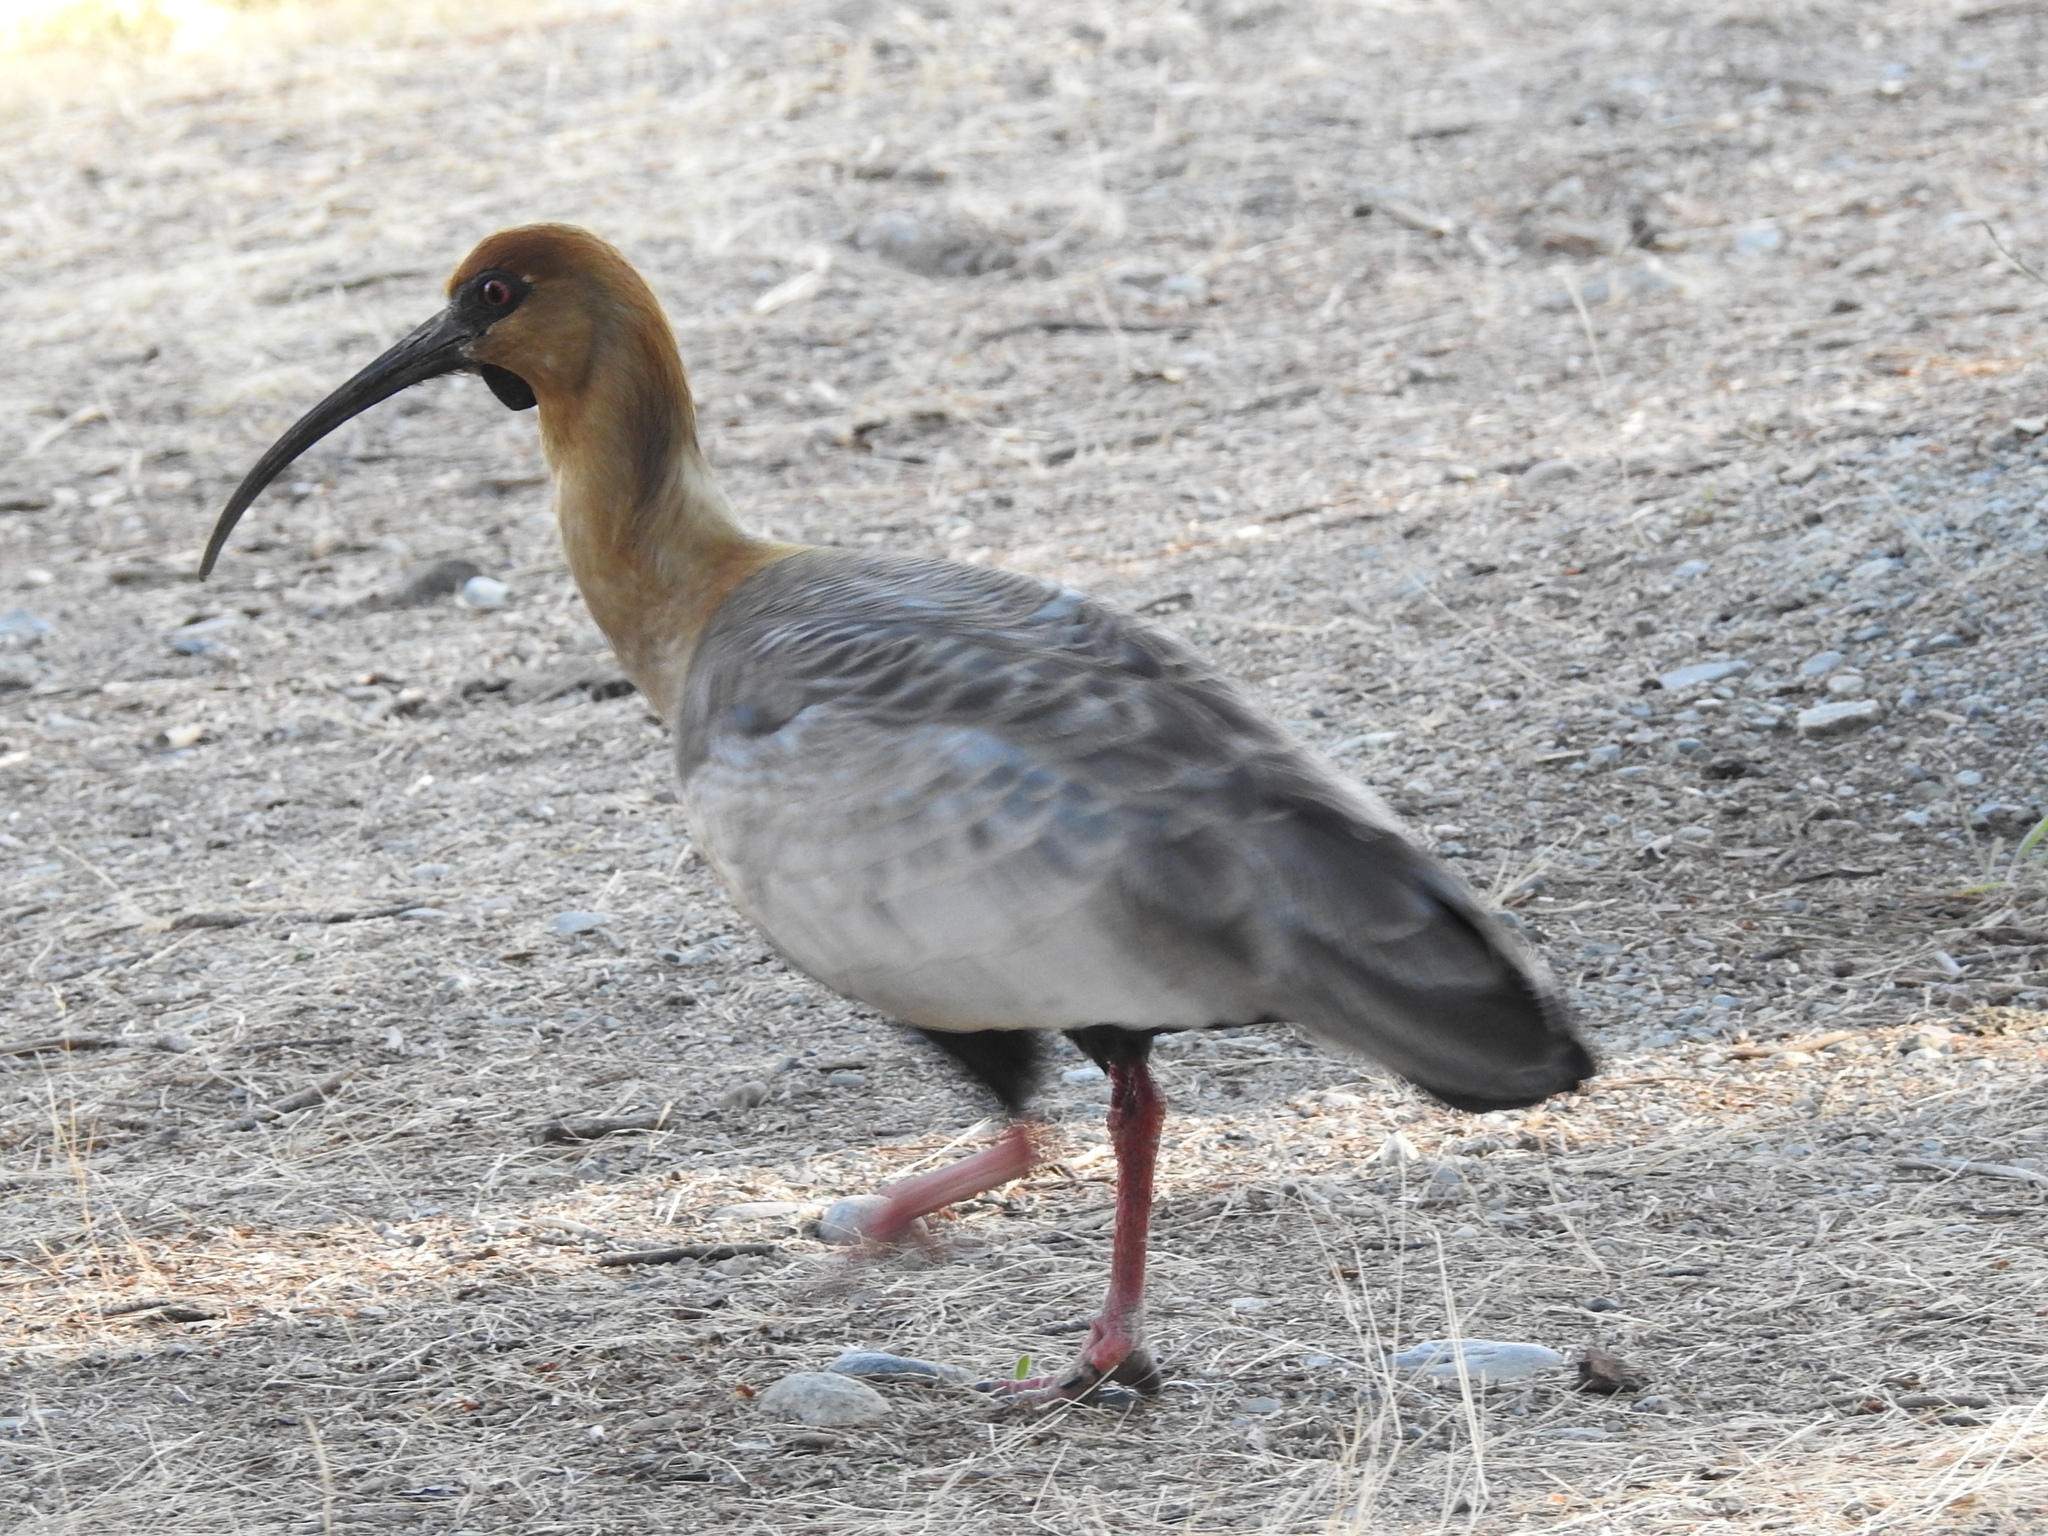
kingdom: Animalia
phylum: Chordata
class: Aves
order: Pelecaniformes
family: Threskiornithidae
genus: Theristicus
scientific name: Theristicus melanopis
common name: Black-faced ibis
